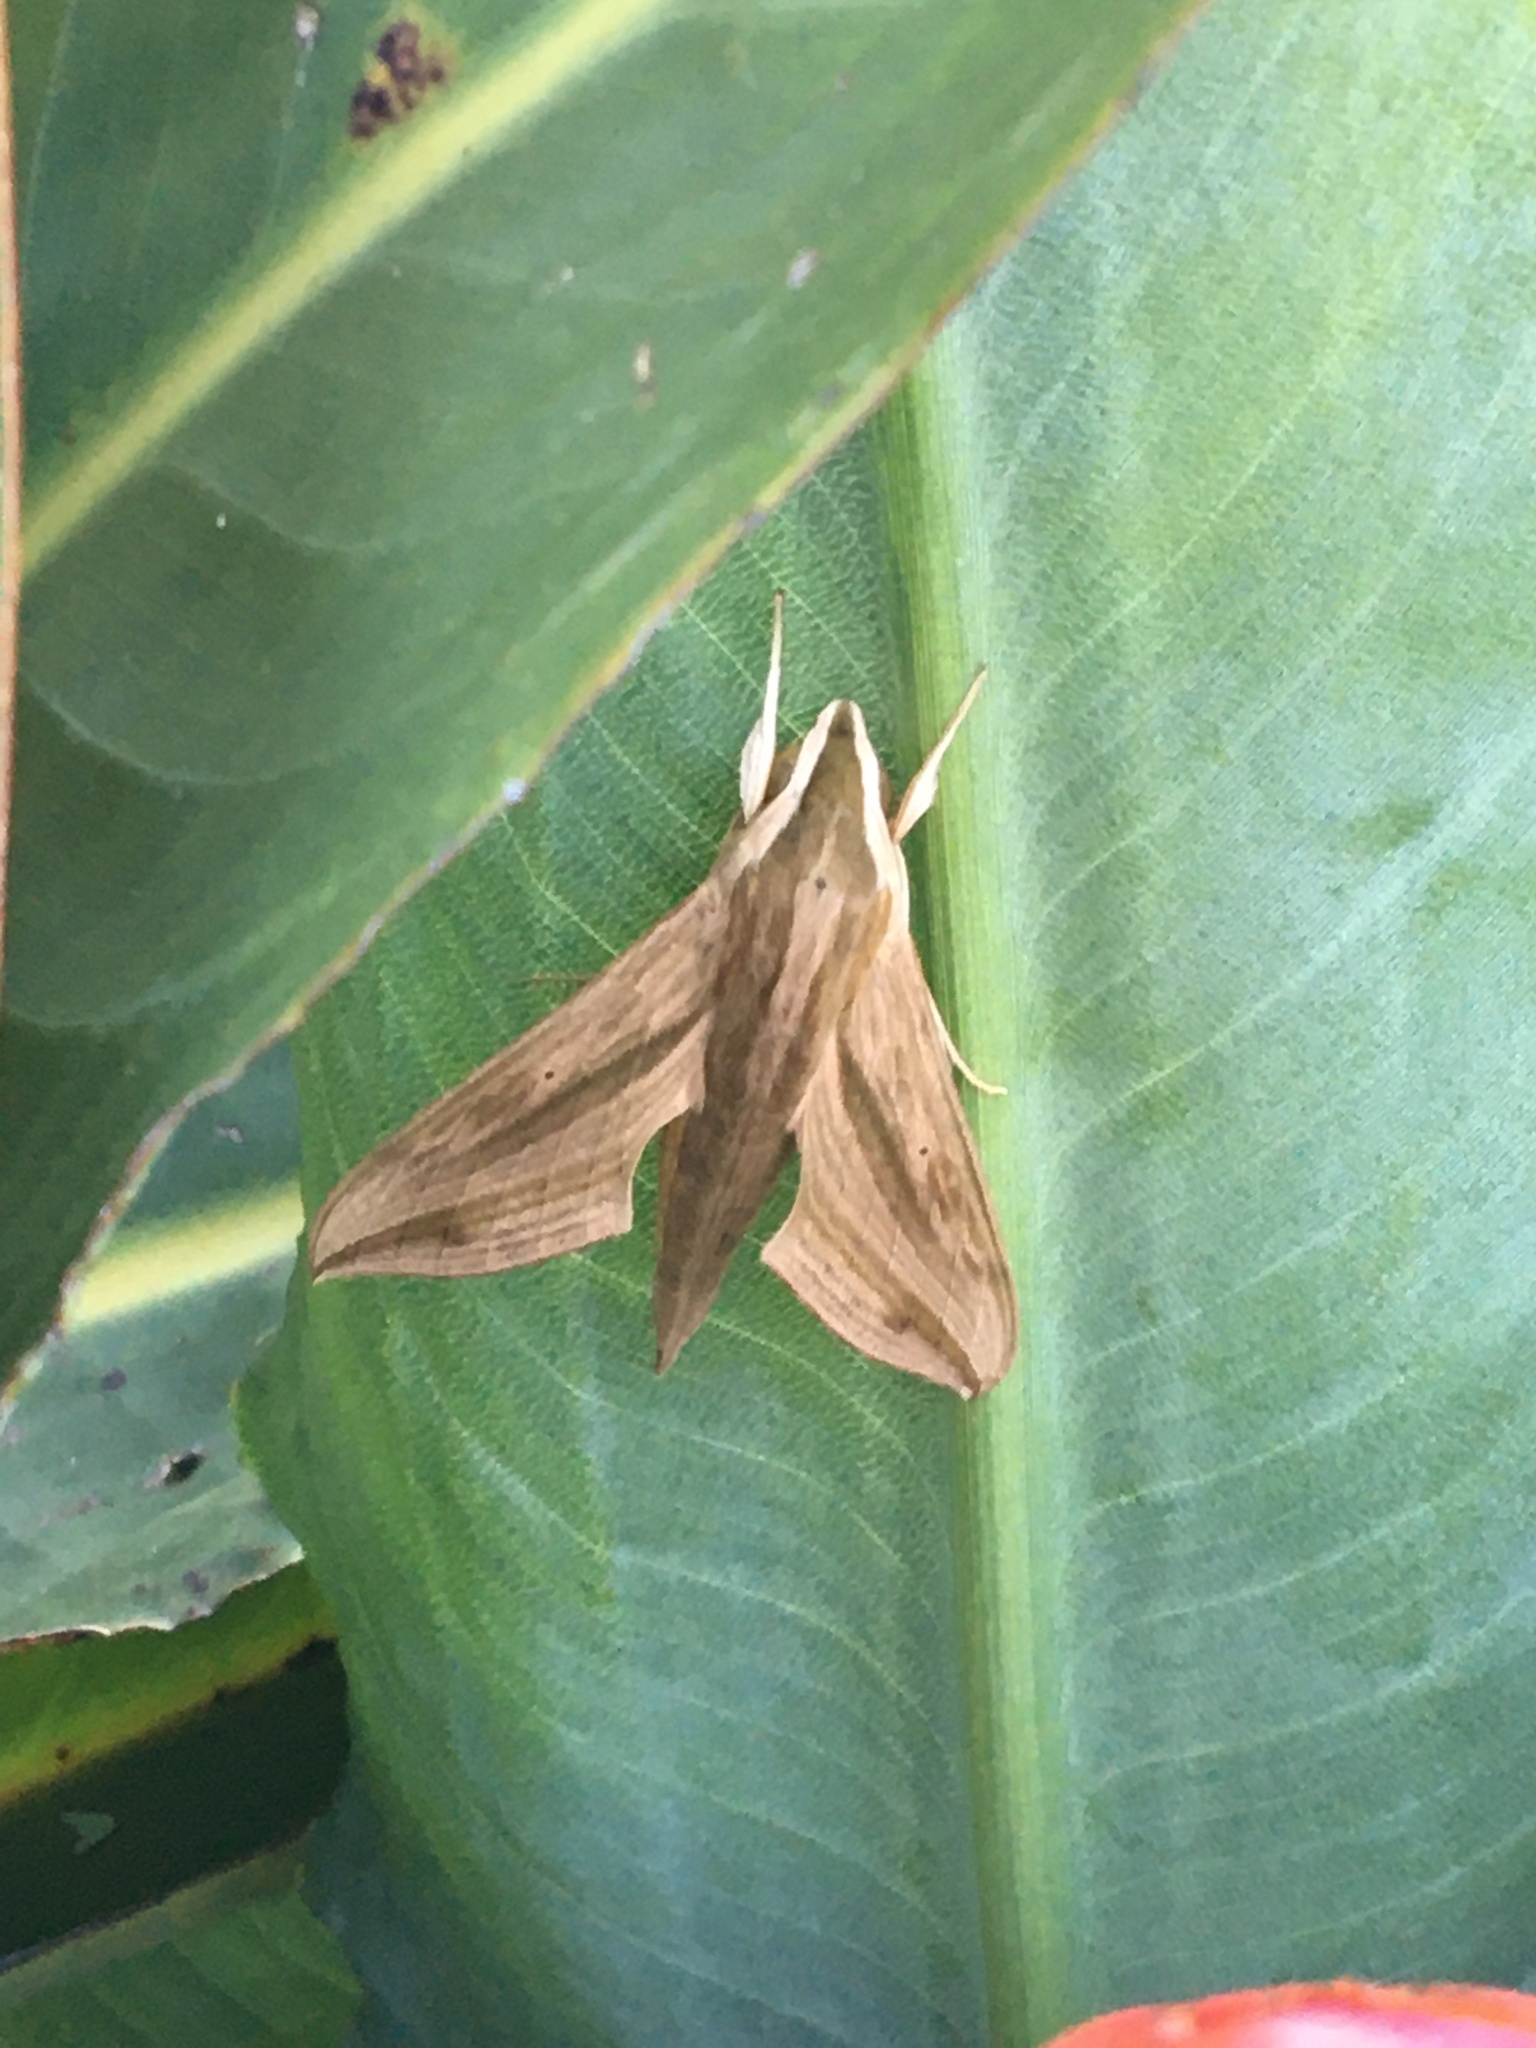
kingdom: Animalia
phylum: Arthropoda
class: Insecta
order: Lepidoptera
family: Sphingidae
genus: Hippotion
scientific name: Hippotion eson
